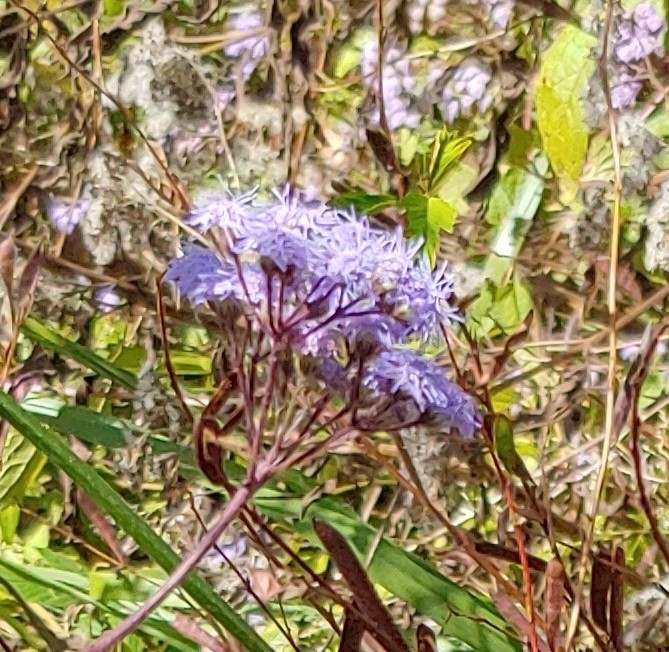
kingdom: Plantae
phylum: Tracheophyta
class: Magnoliopsida
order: Asterales
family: Asteraceae
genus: Conoclinium
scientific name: Conoclinium coelestinum
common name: Blue mistflower
